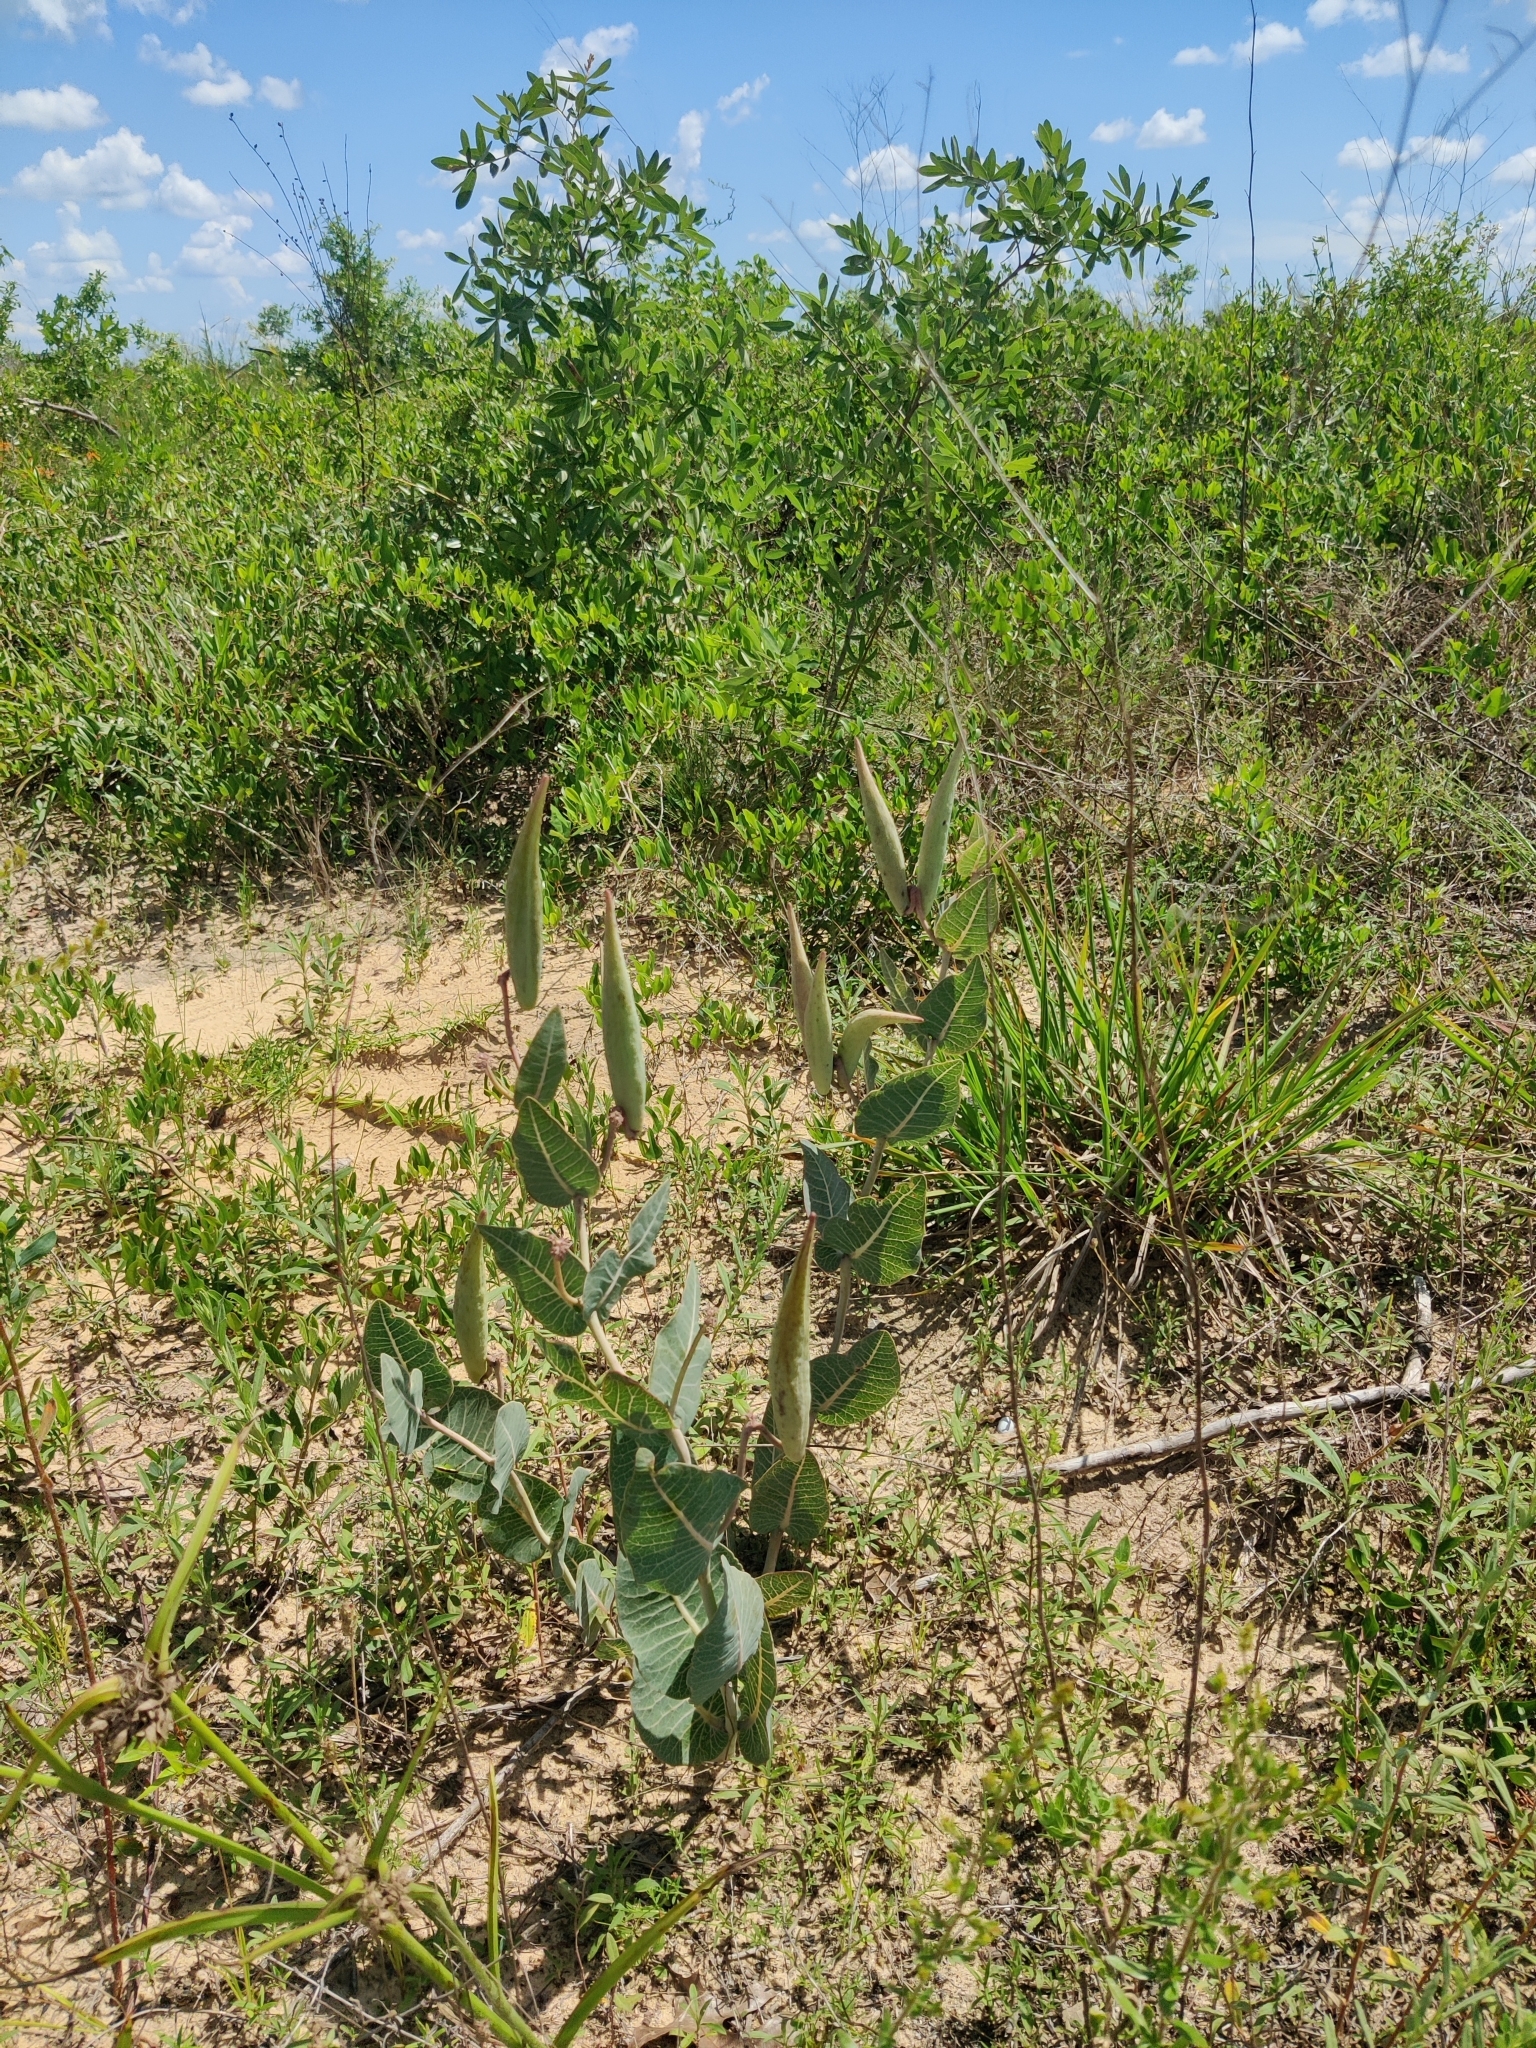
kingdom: Plantae
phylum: Tracheophyta
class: Magnoliopsida
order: Gentianales
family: Apocynaceae
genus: Asclepias
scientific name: Asclepias humistrata
